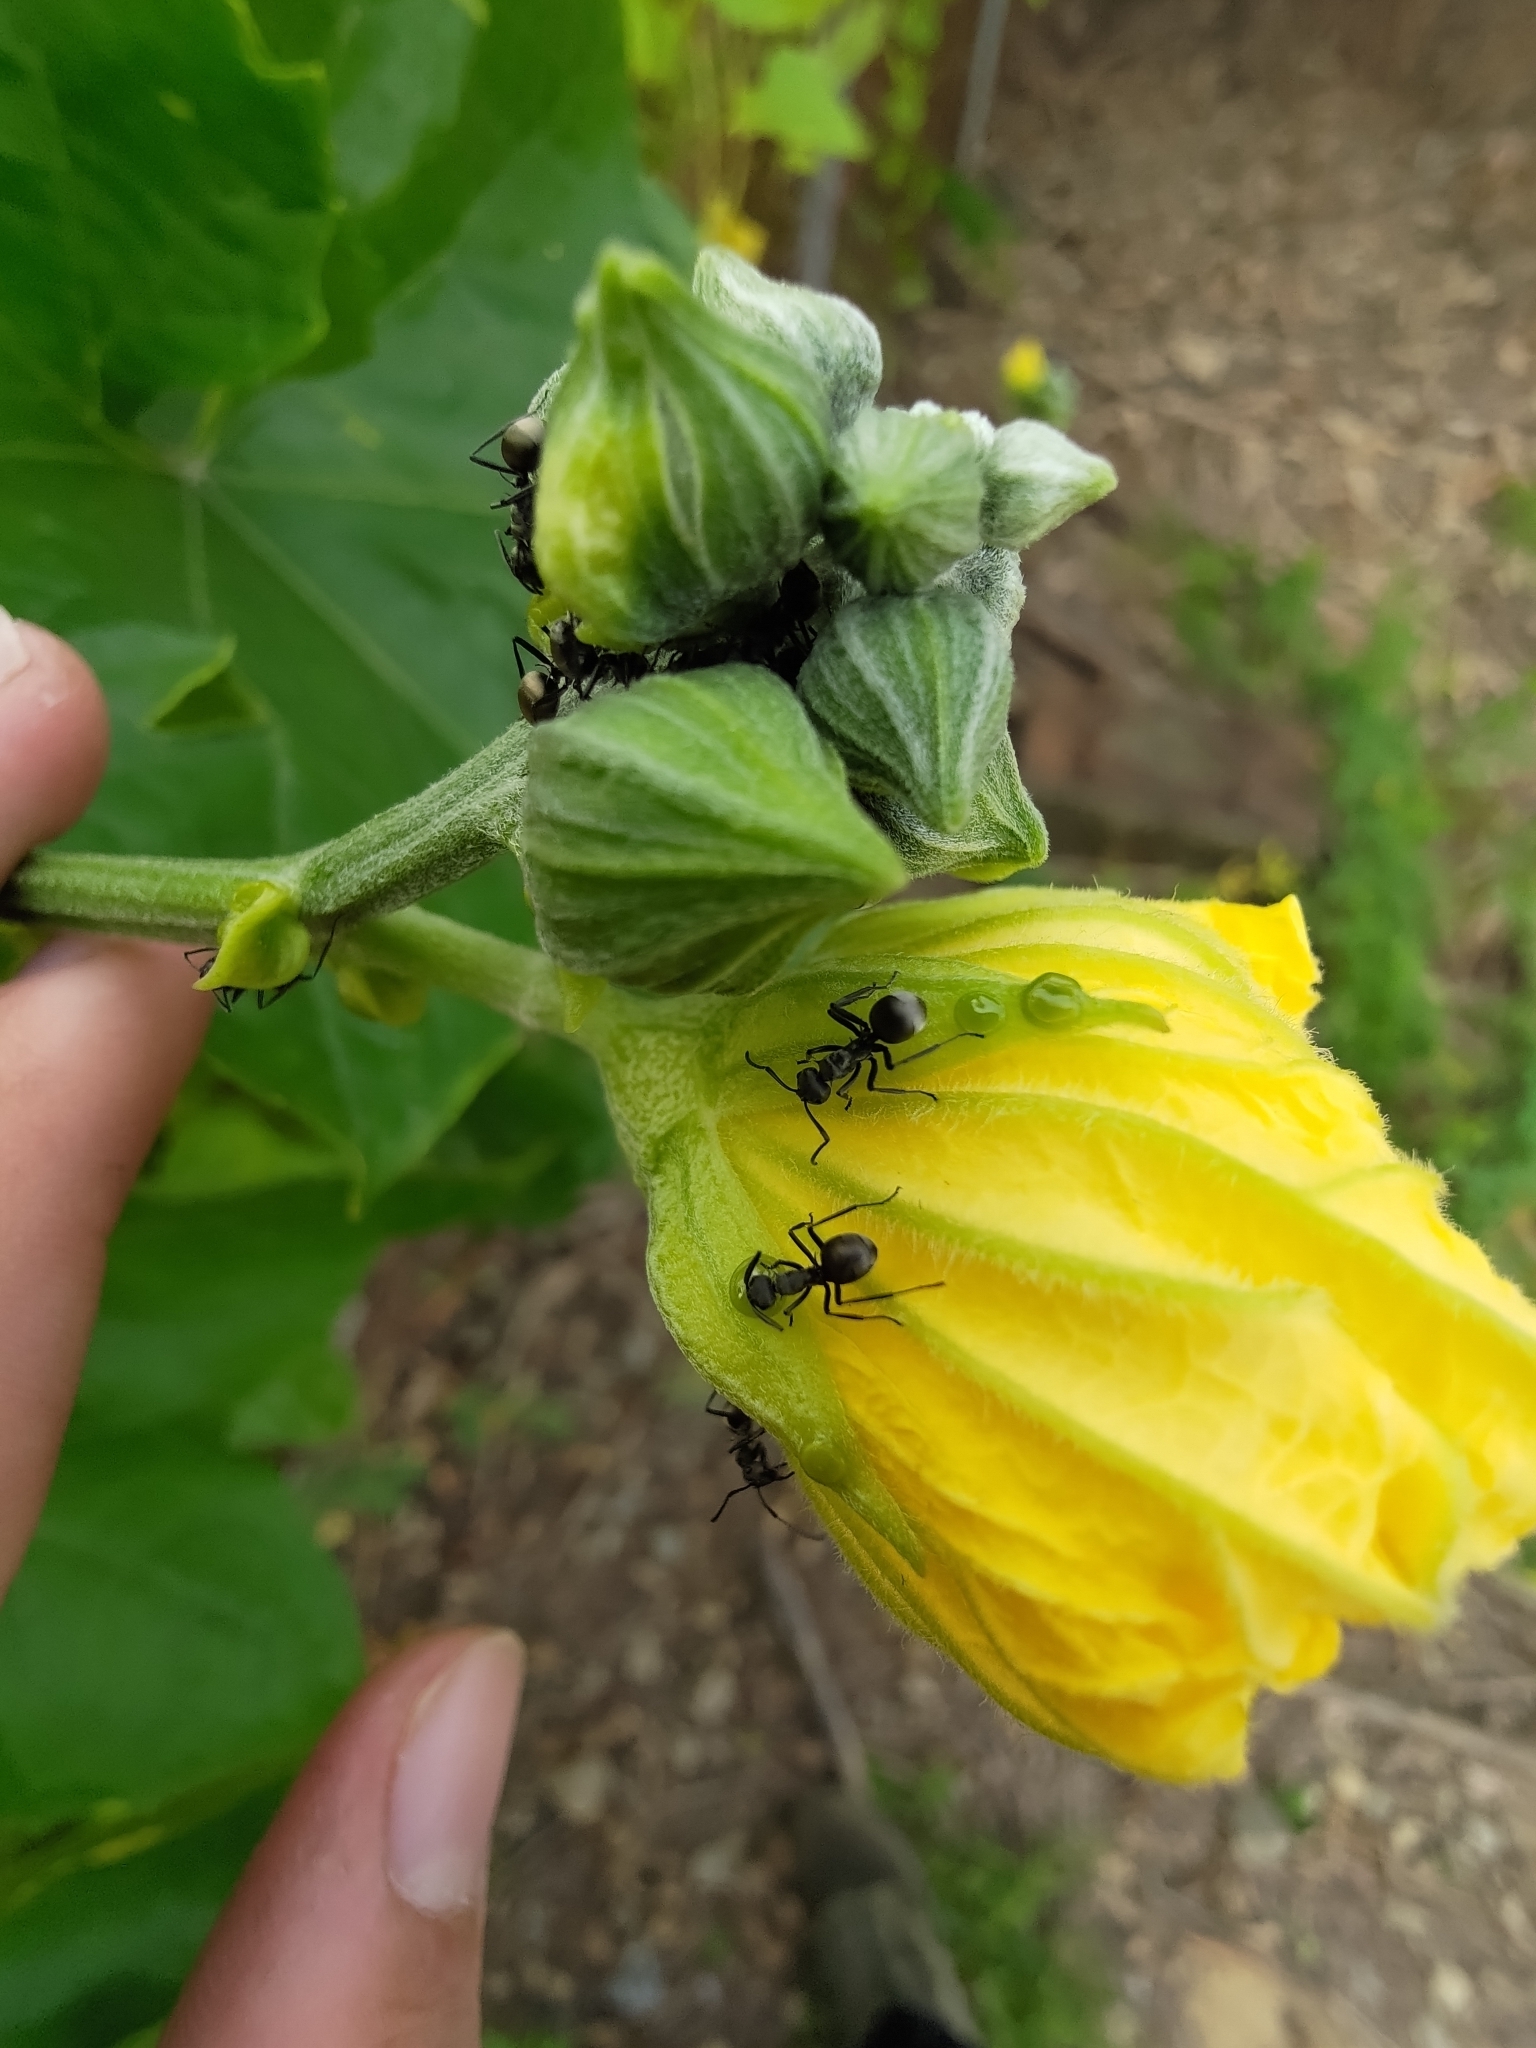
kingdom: Animalia
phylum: Arthropoda
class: Insecta
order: Hymenoptera
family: Formicidae
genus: Polyrhachis
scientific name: Polyrhachis dives
